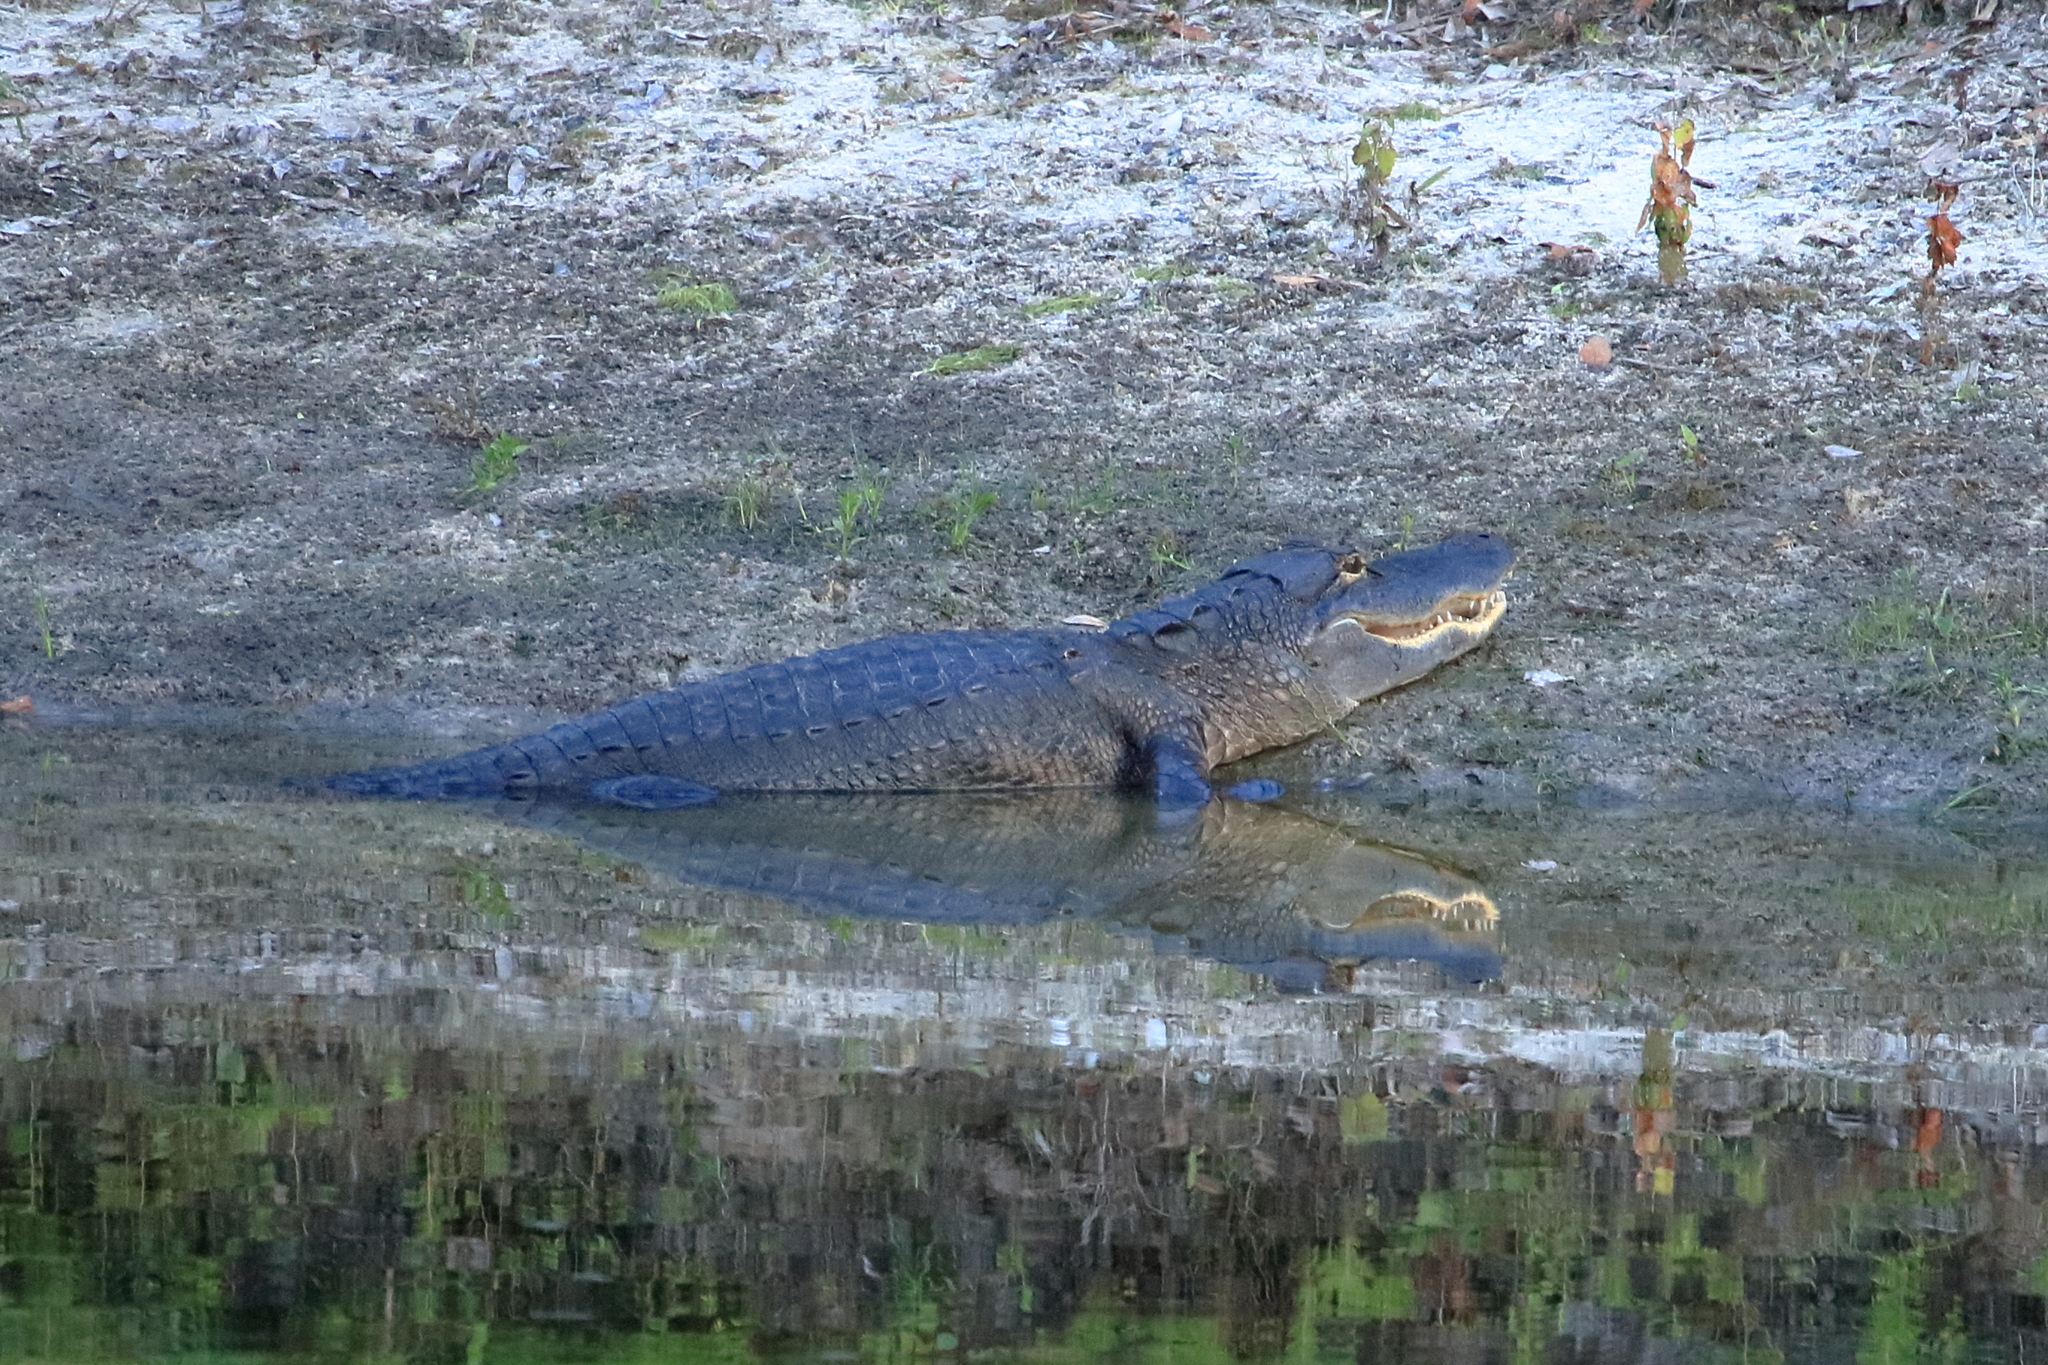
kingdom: Animalia
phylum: Chordata
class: Crocodylia
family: Alligatoridae
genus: Alligator
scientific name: Alligator mississippiensis
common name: American alligator
